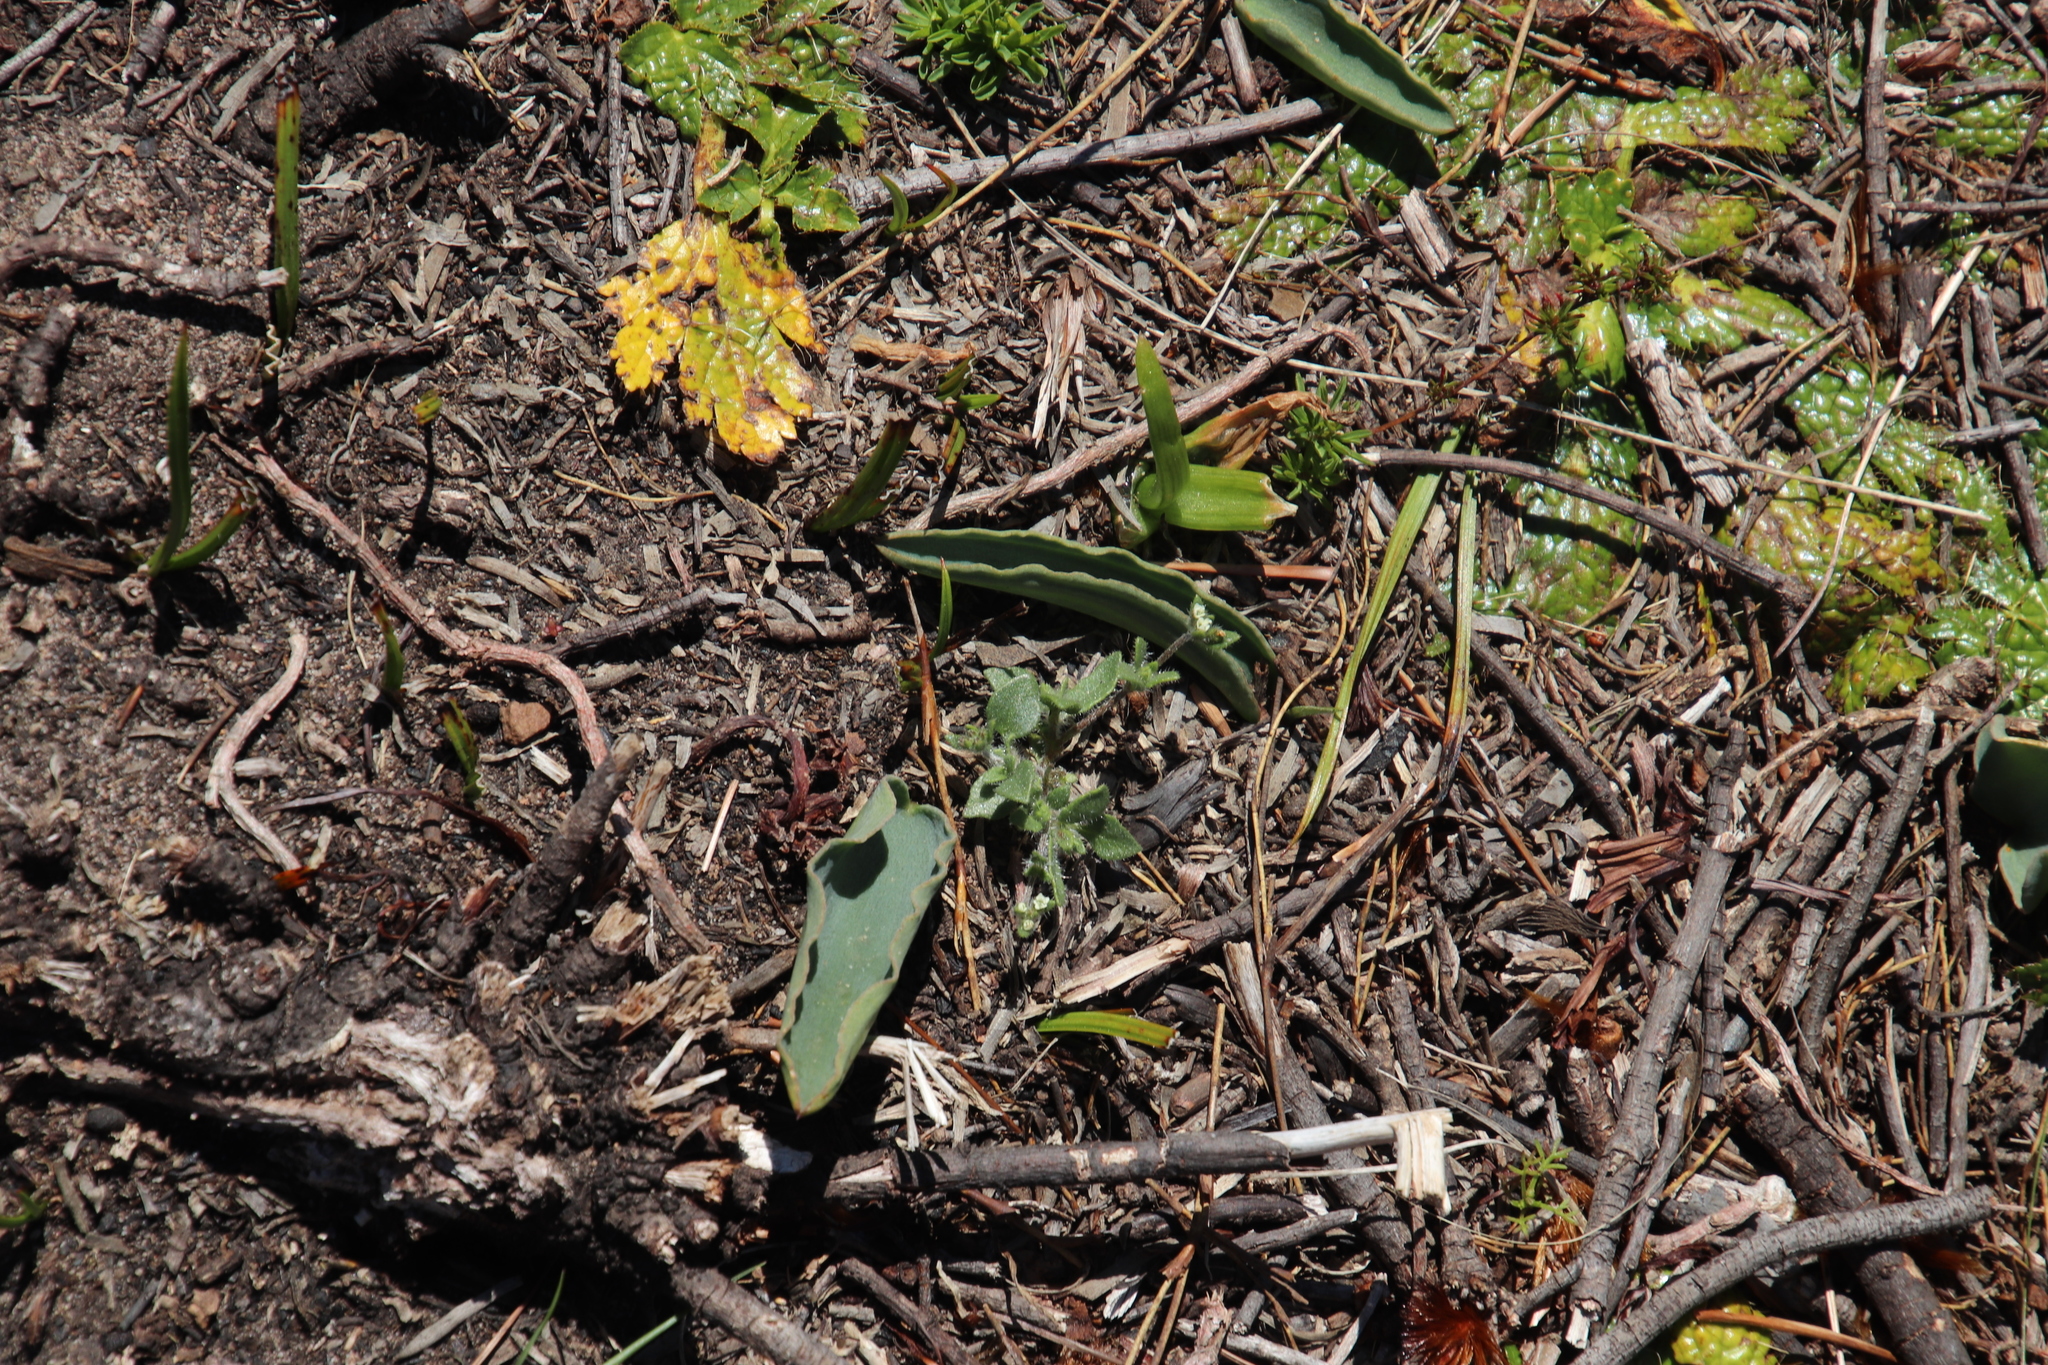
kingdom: Plantae
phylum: Tracheophyta
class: Liliopsida
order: Asparagales
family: Asparagaceae
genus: Eriospermum
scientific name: Eriospermum lanceifolium
